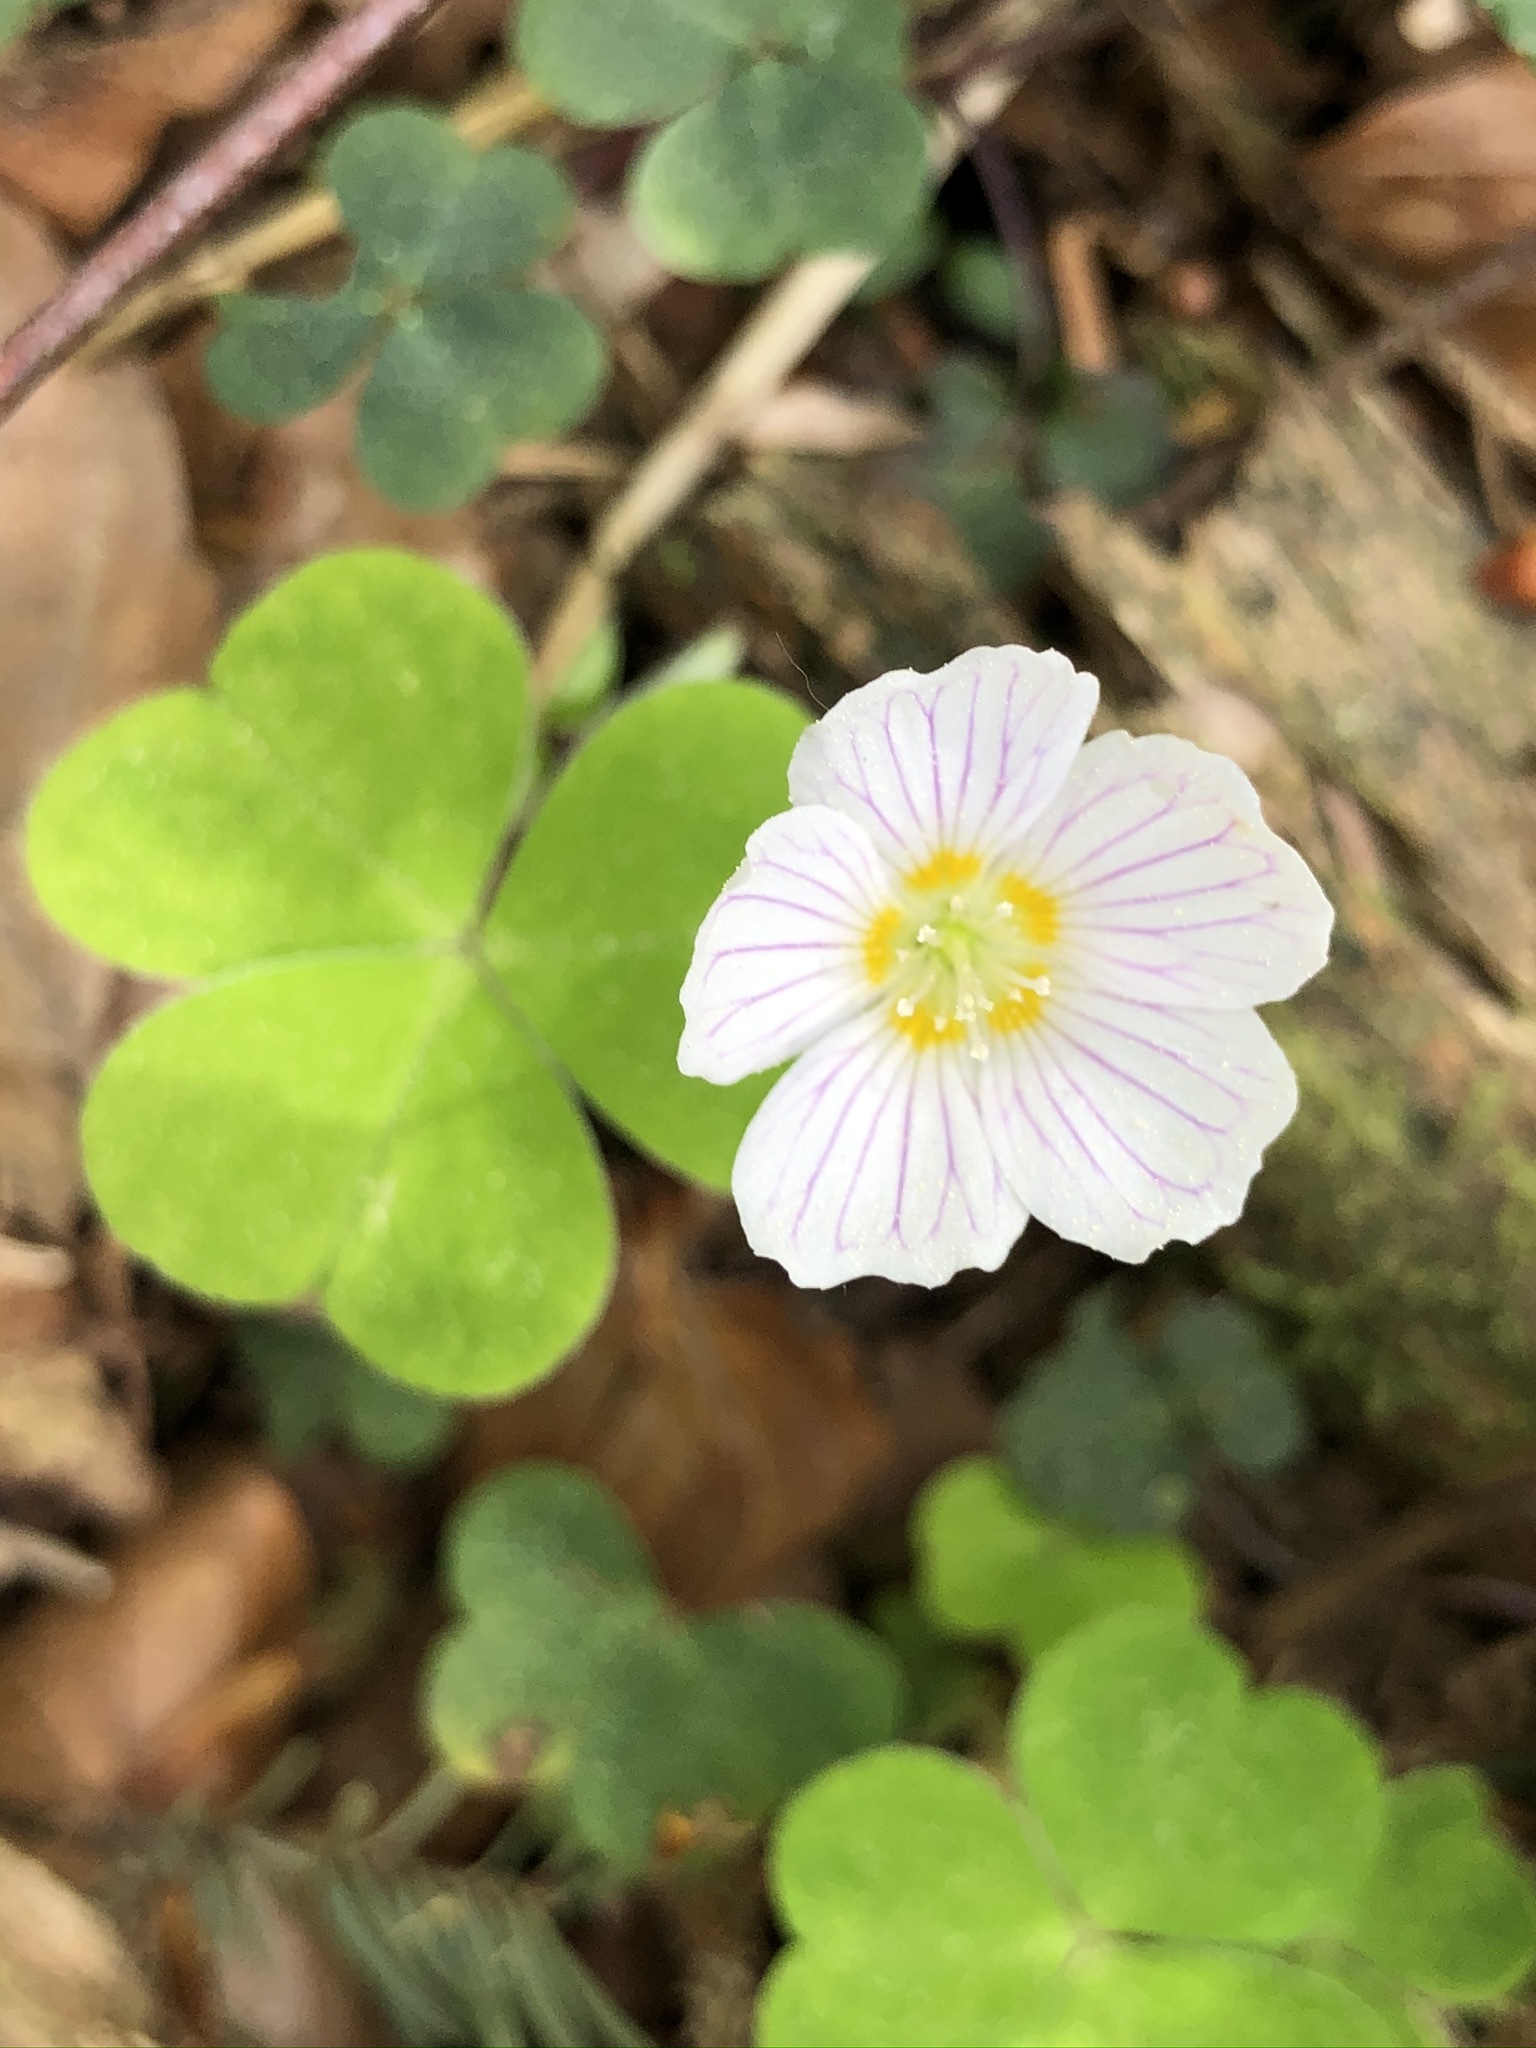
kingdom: Plantae
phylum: Tracheophyta
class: Magnoliopsida
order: Oxalidales
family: Oxalidaceae
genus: Oxalis
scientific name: Oxalis acetosella
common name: Wood-sorrel
